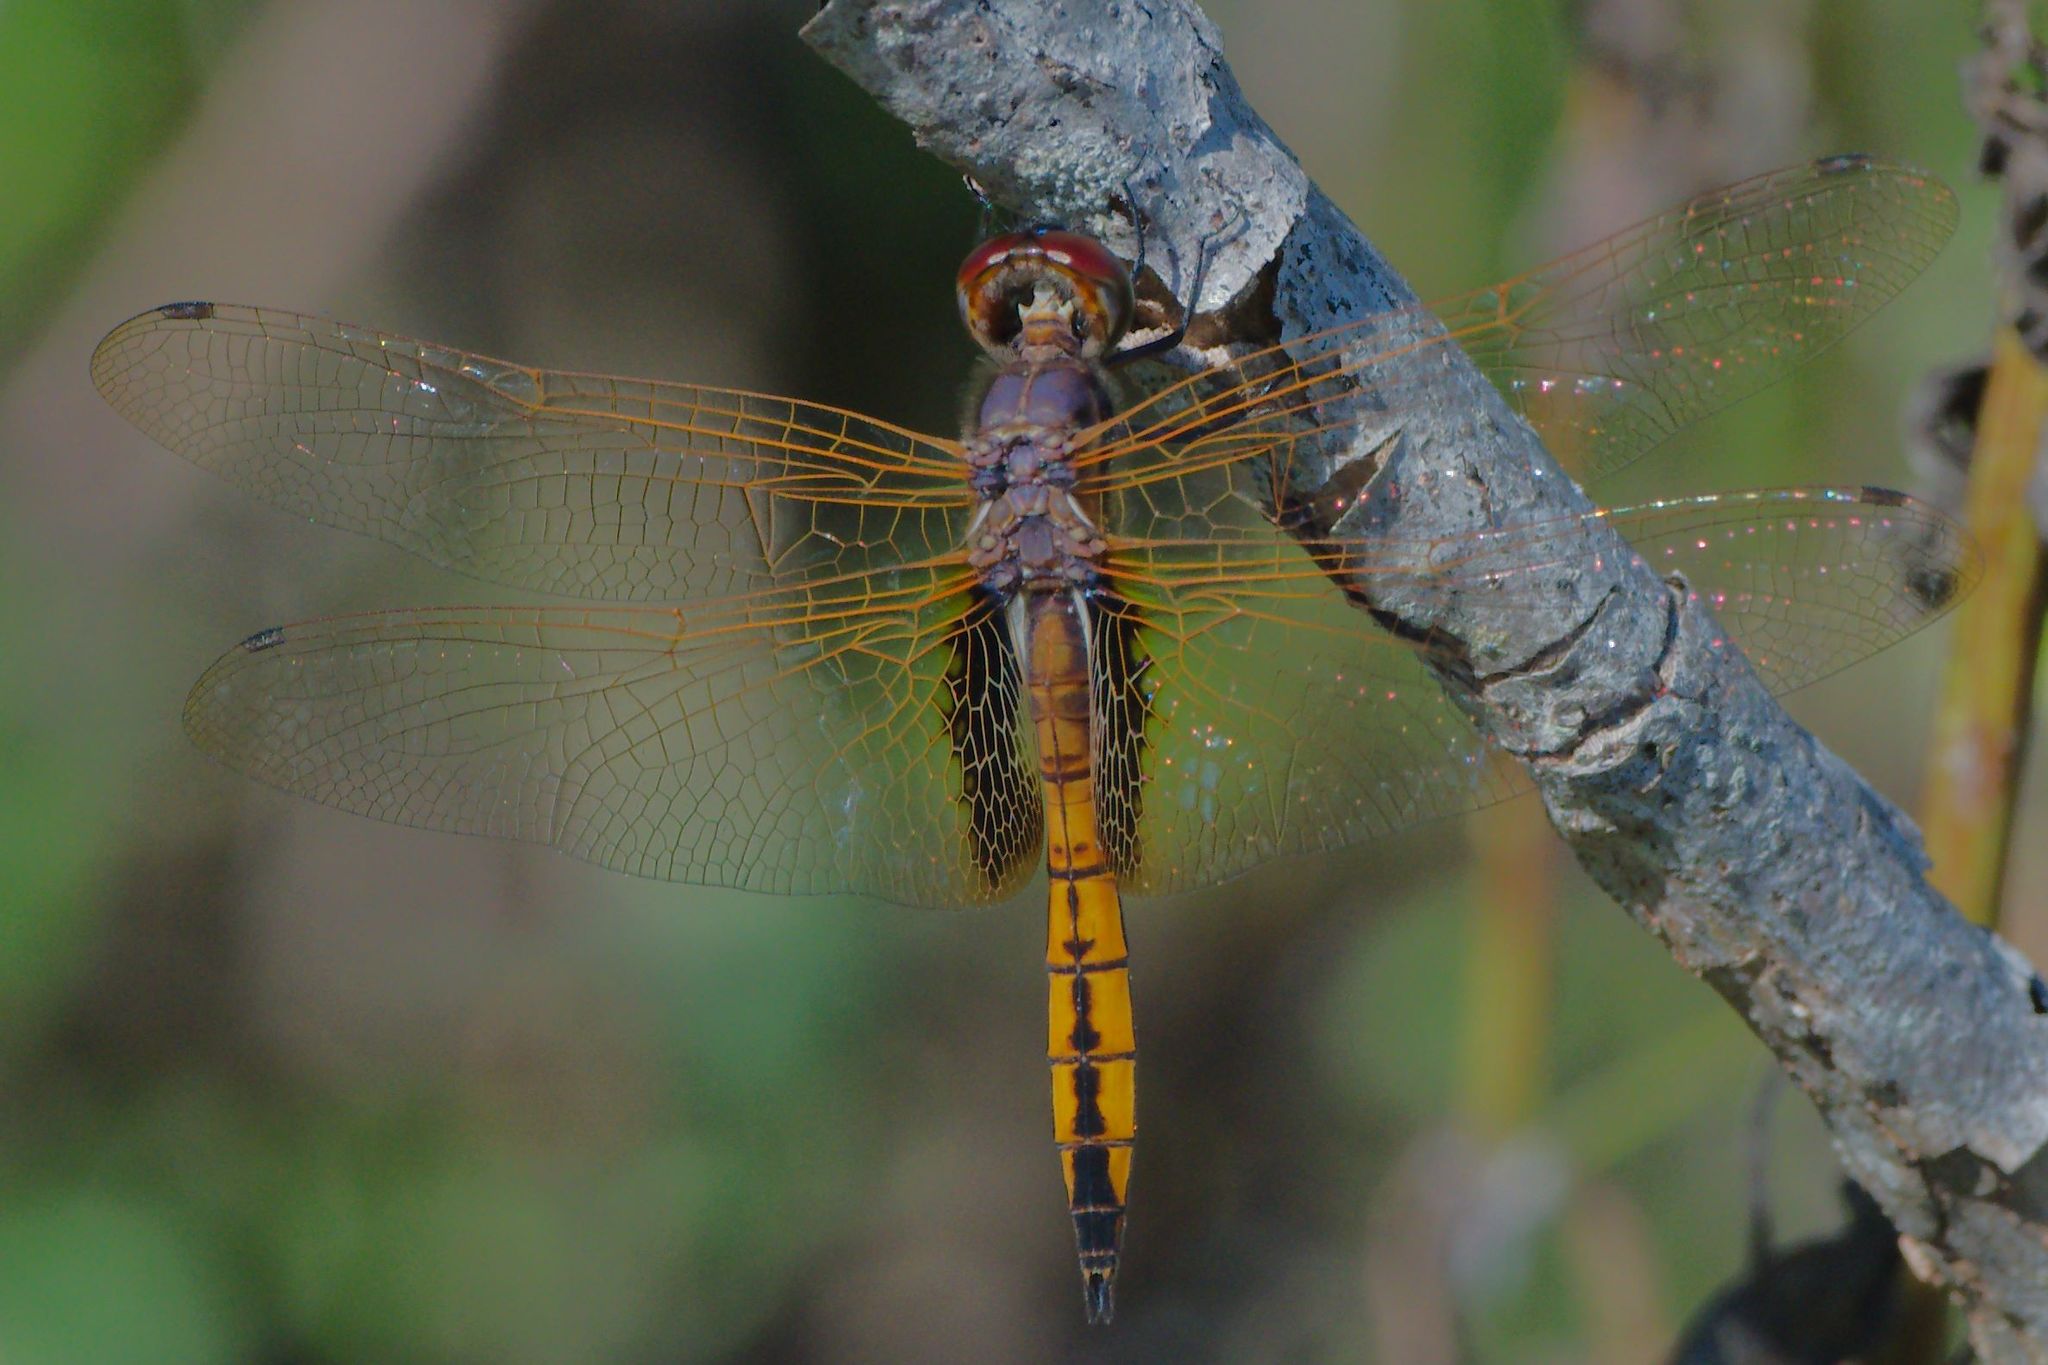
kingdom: Animalia
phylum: Arthropoda
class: Insecta
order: Odonata
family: Libellulidae
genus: Miathyria
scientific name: Miathyria marcella
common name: Hyacinth glider
